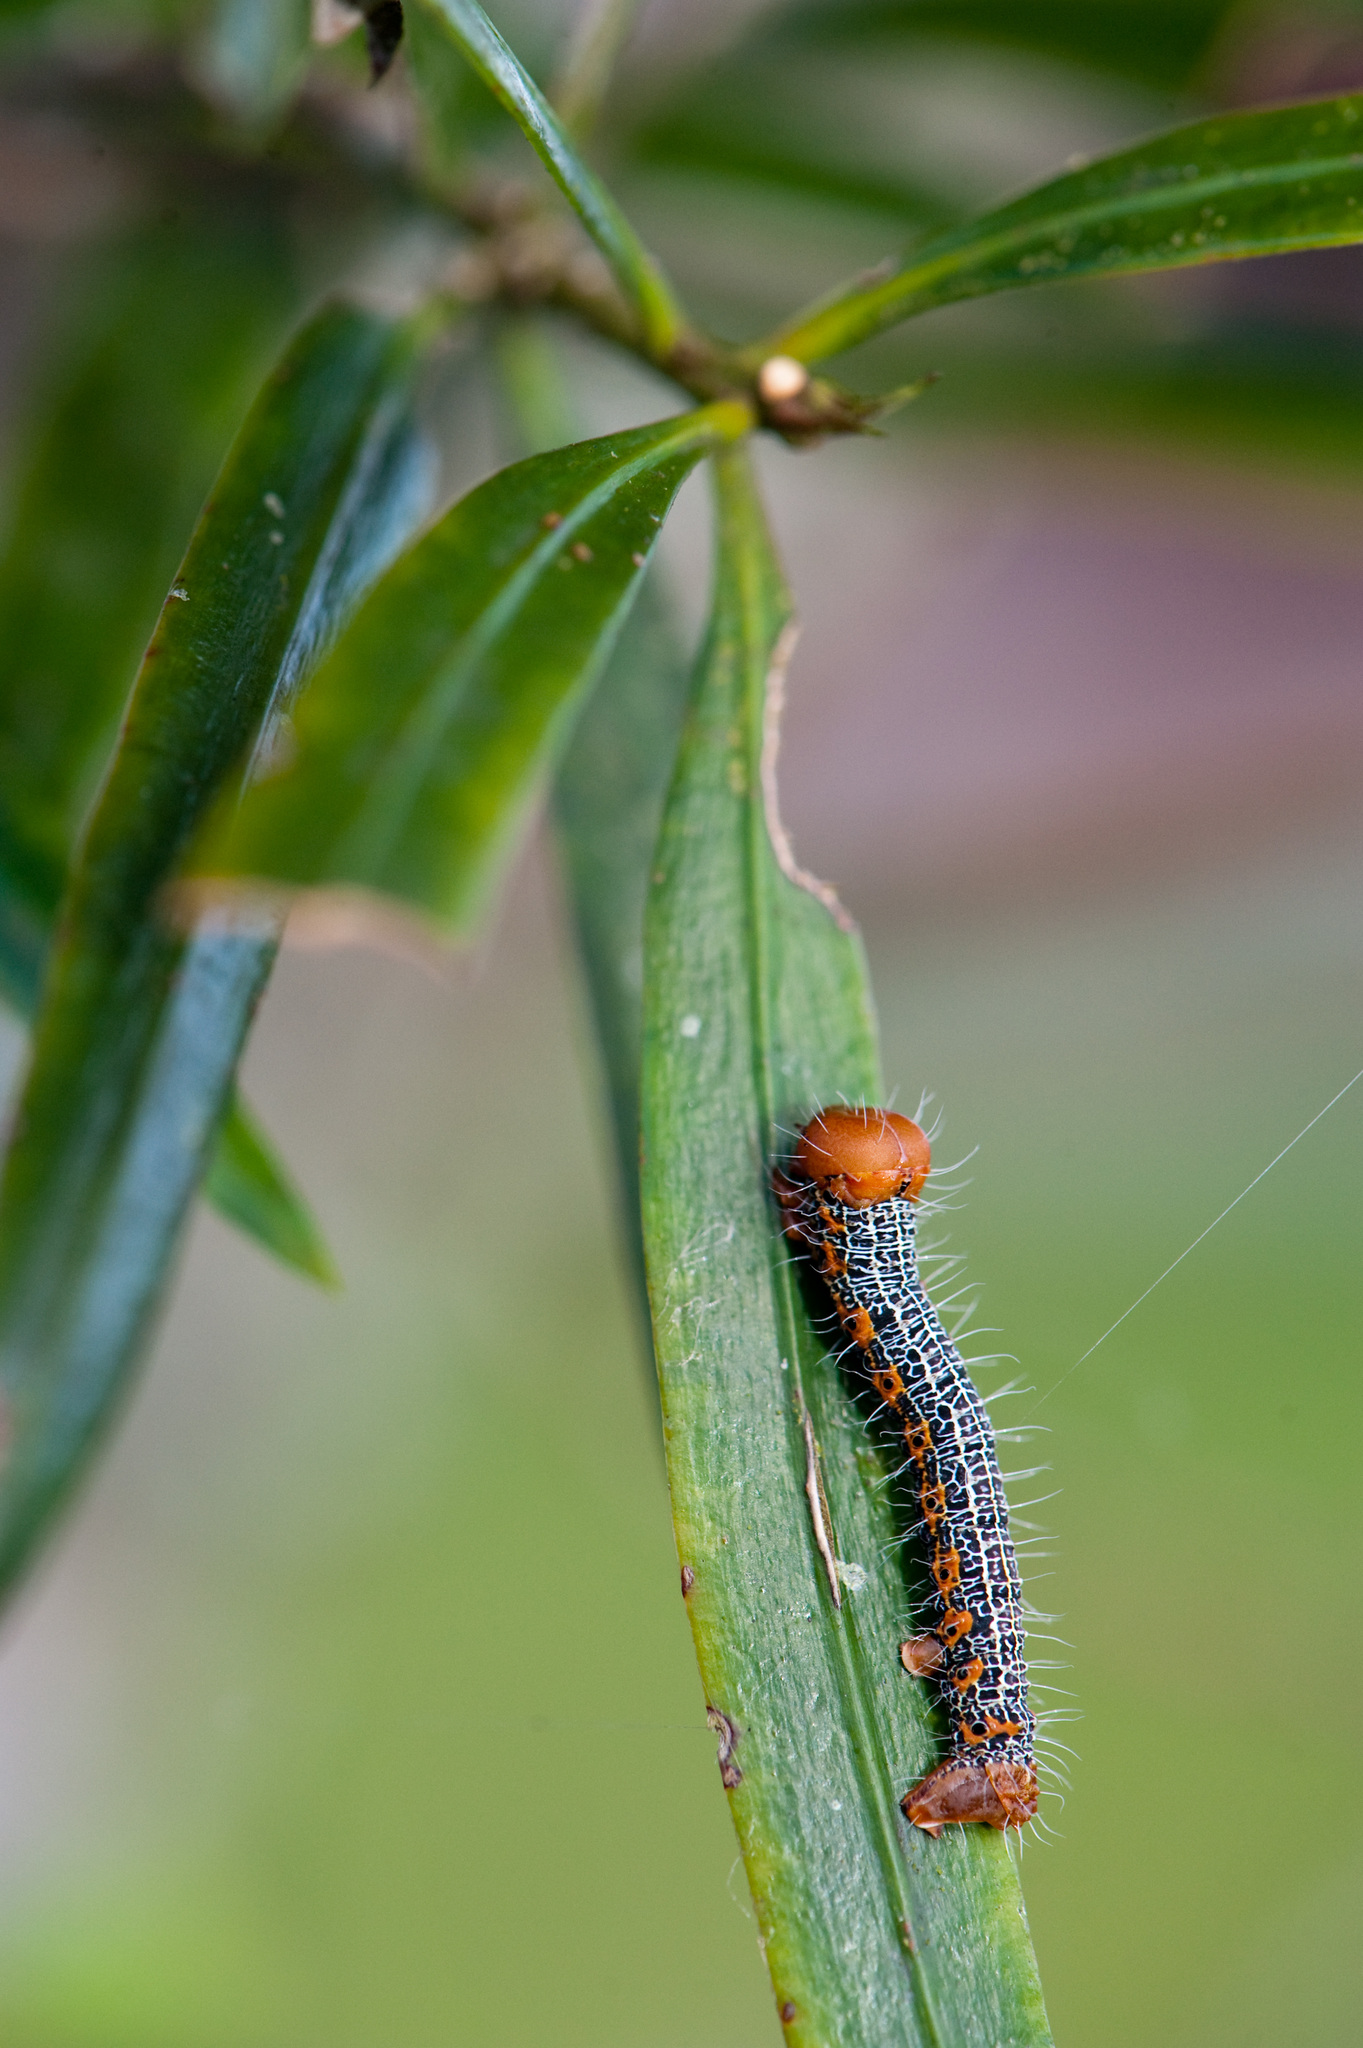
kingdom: Animalia
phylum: Arthropoda
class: Insecta
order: Lepidoptera
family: Geometridae
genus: Milionia
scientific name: Milionia basalis
